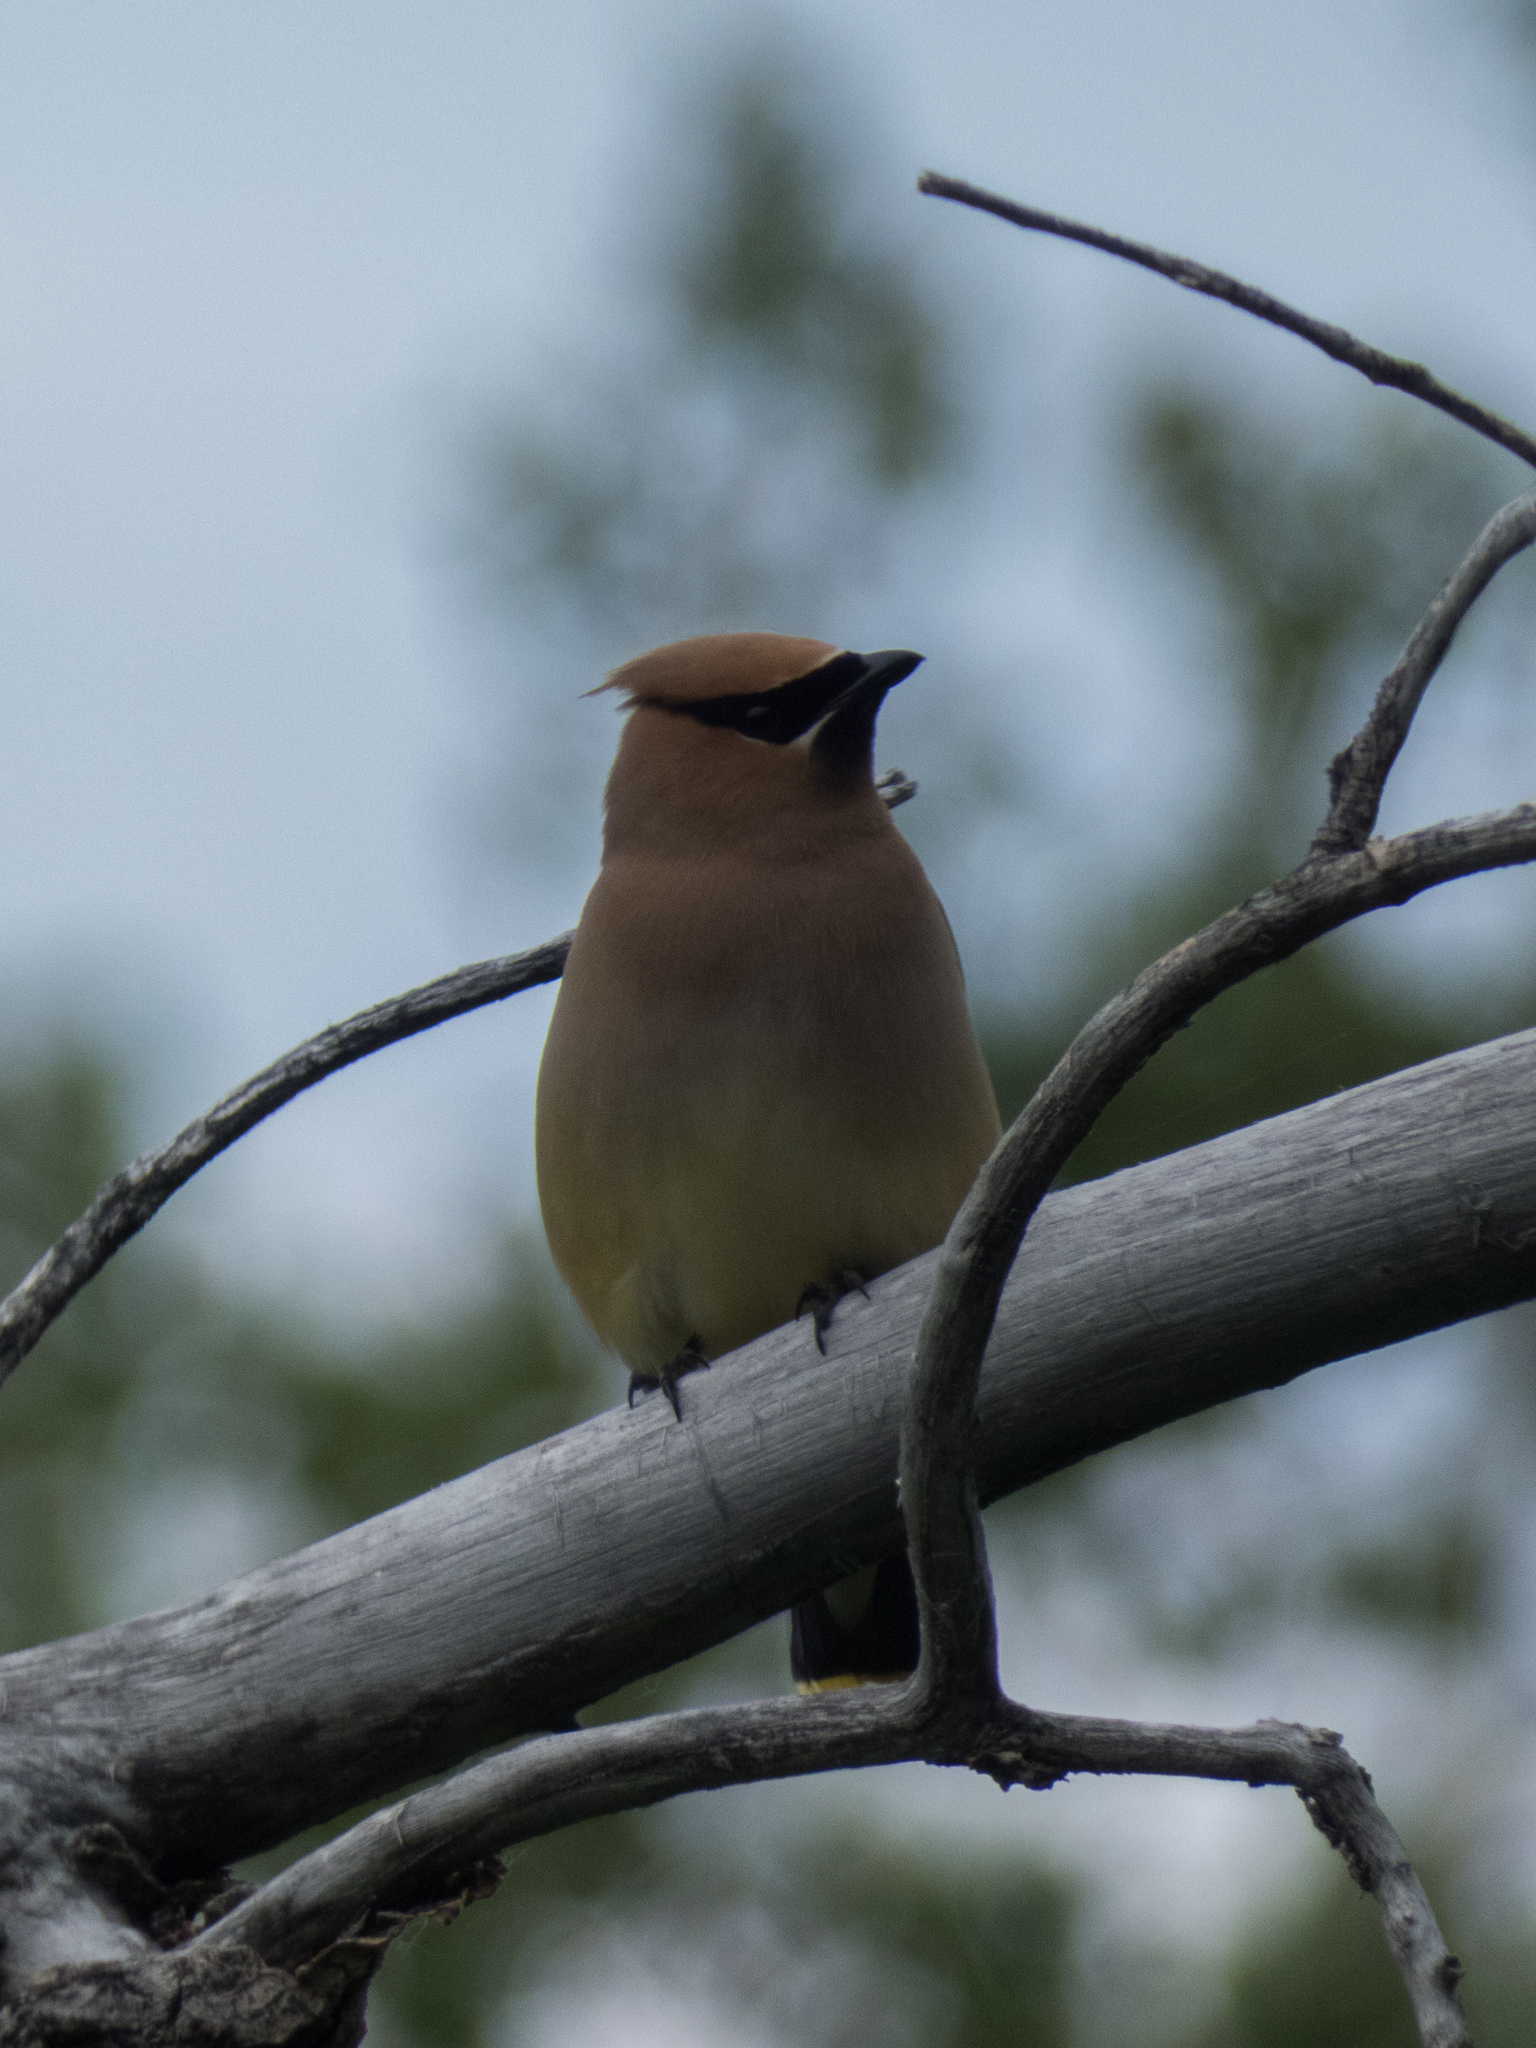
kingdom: Animalia
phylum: Chordata
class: Aves
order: Passeriformes
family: Bombycillidae
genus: Bombycilla
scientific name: Bombycilla cedrorum
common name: Cedar waxwing
